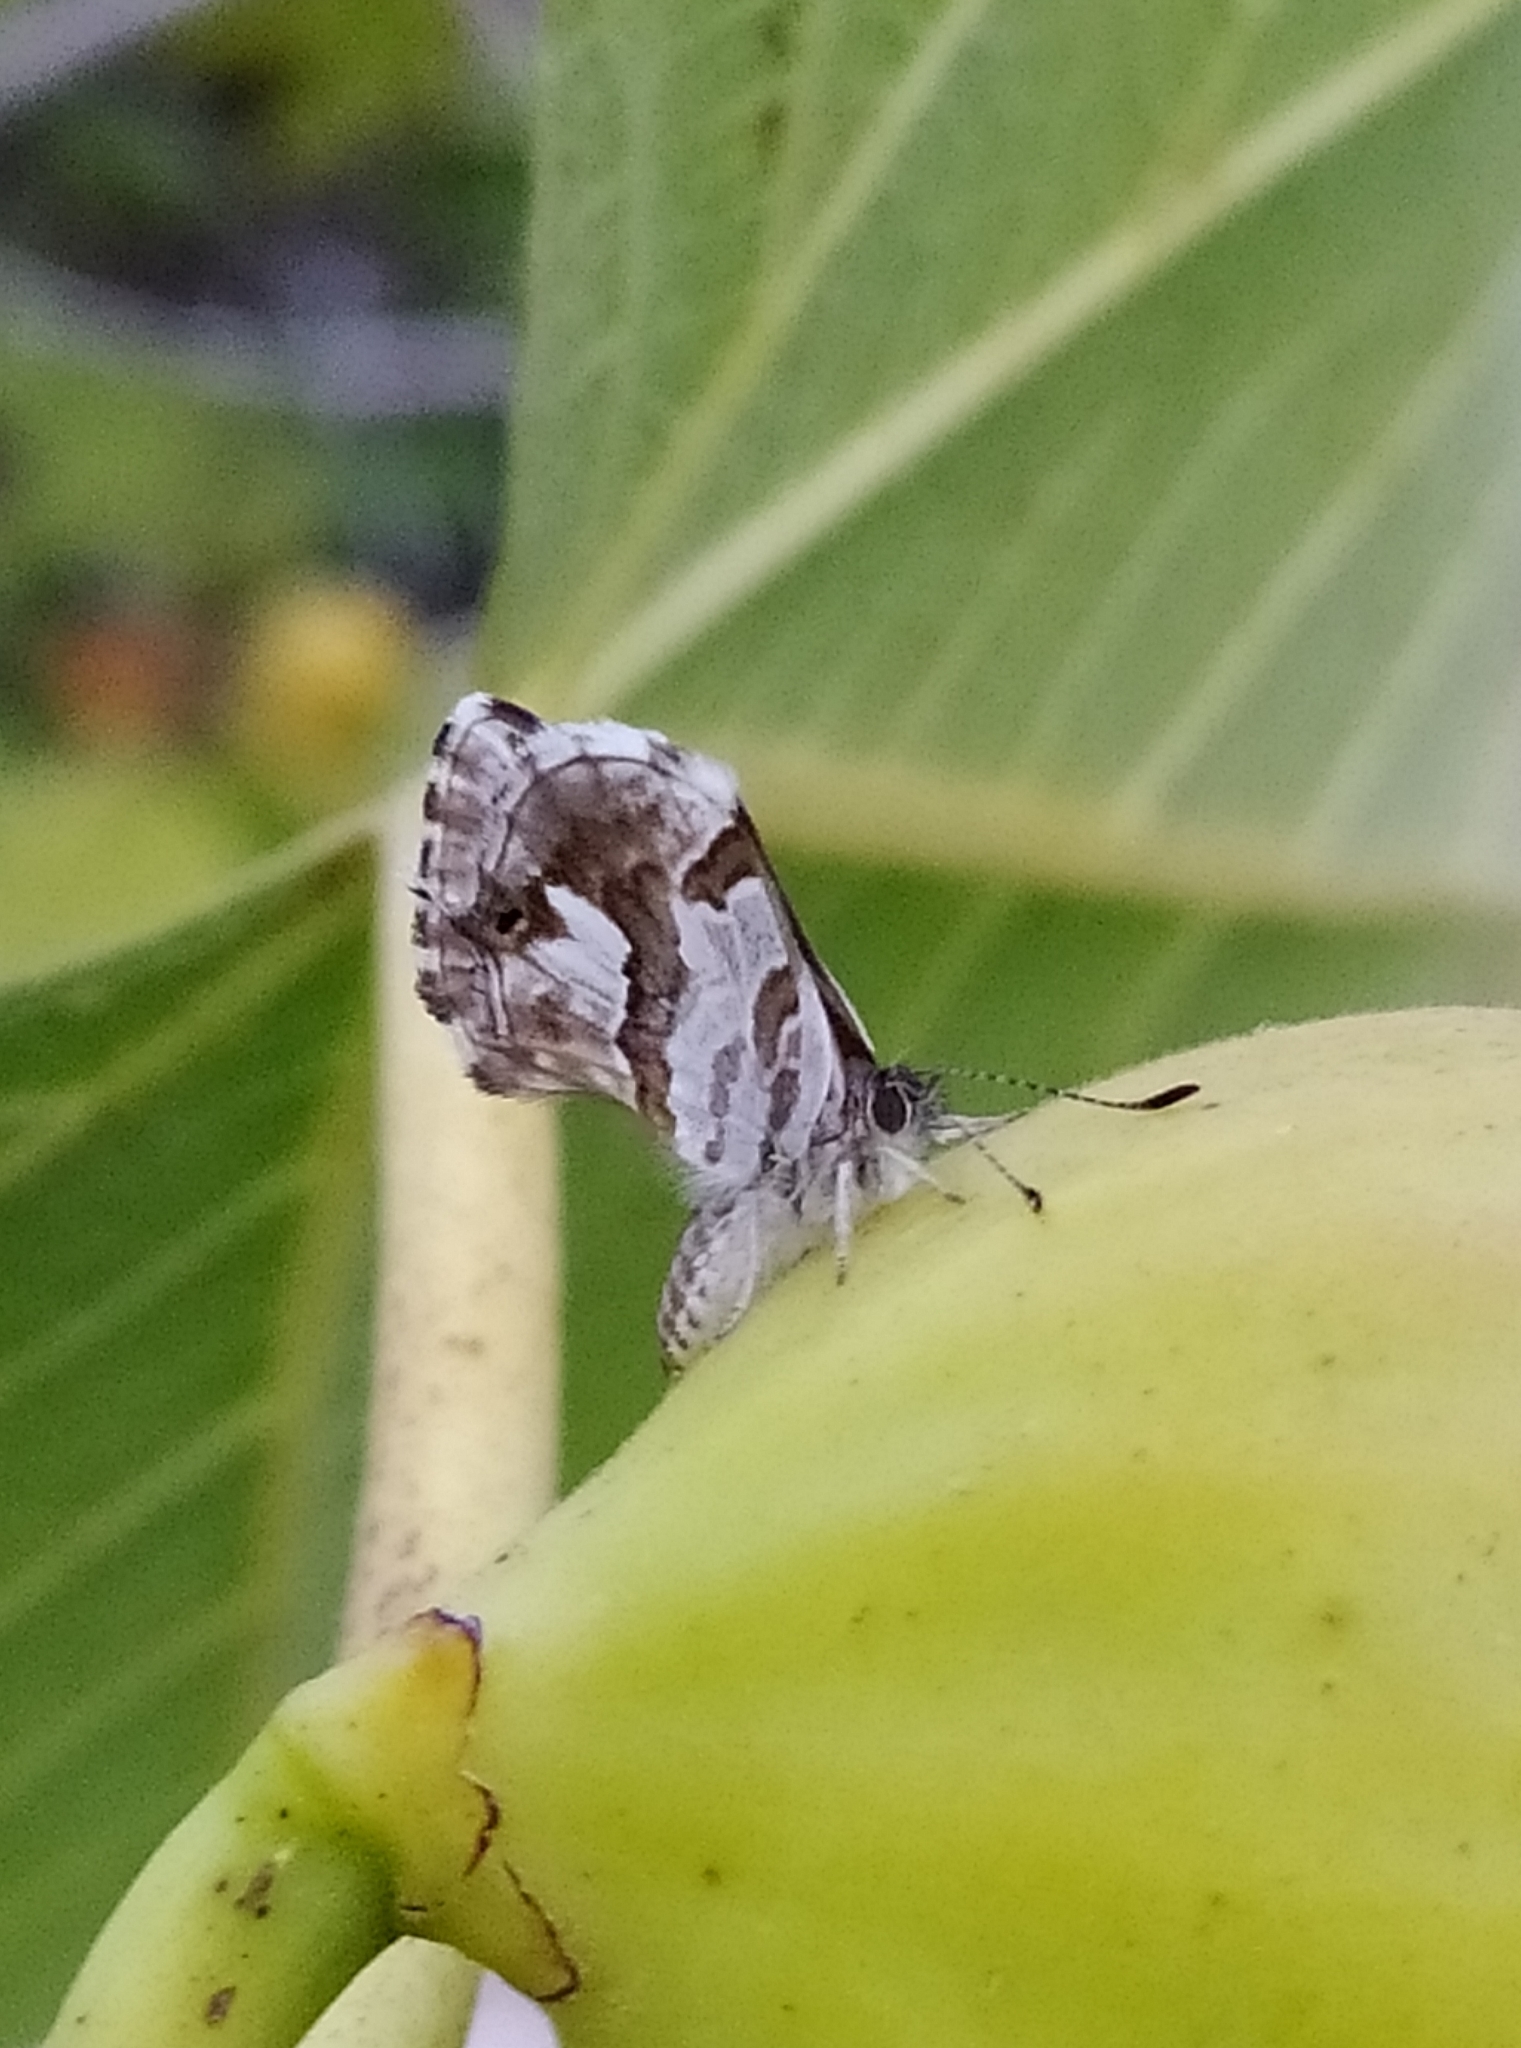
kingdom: Animalia
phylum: Arthropoda
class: Insecta
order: Lepidoptera
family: Lycaenidae
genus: Cacyreus
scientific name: Cacyreus marshalli
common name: Geranium bronze
